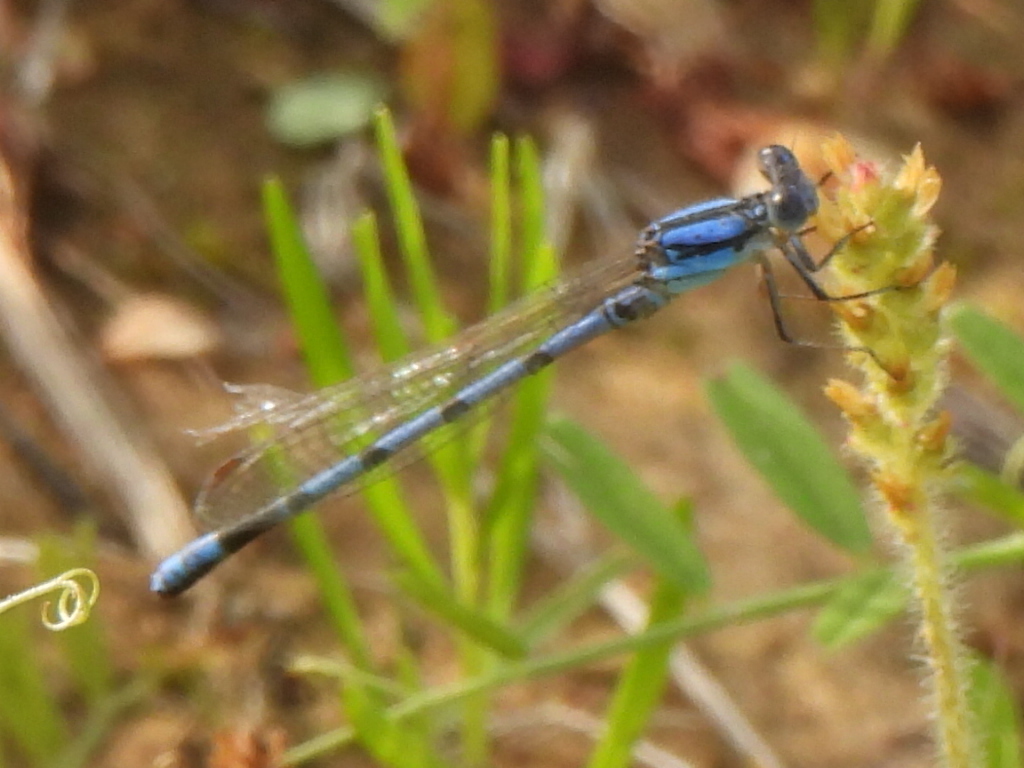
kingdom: Animalia
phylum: Arthropoda
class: Insecta
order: Odonata
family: Coenagrionidae
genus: Argia
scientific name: Argia nahuana
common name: Aztec dancer
